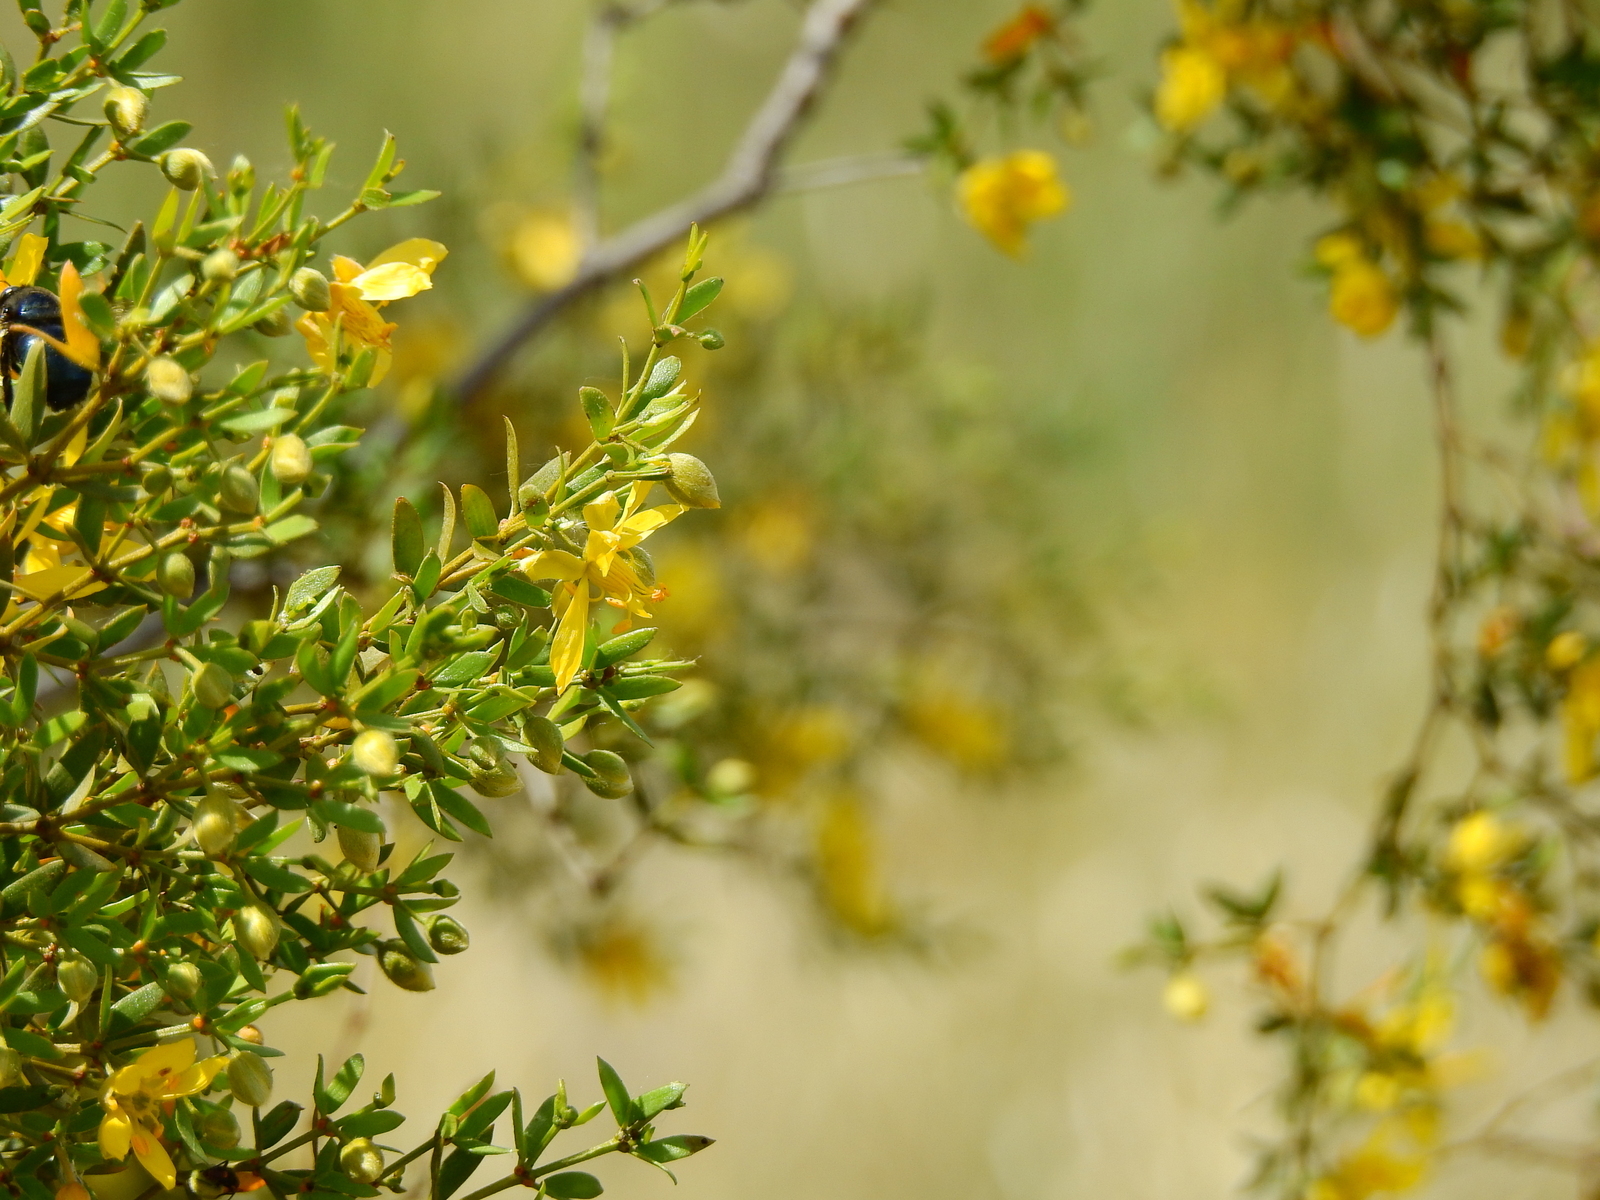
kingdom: Plantae
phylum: Tracheophyta
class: Magnoliopsida
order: Zygophyllales
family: Zygophyllaceae
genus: Larrea
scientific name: Larrea divaricata
